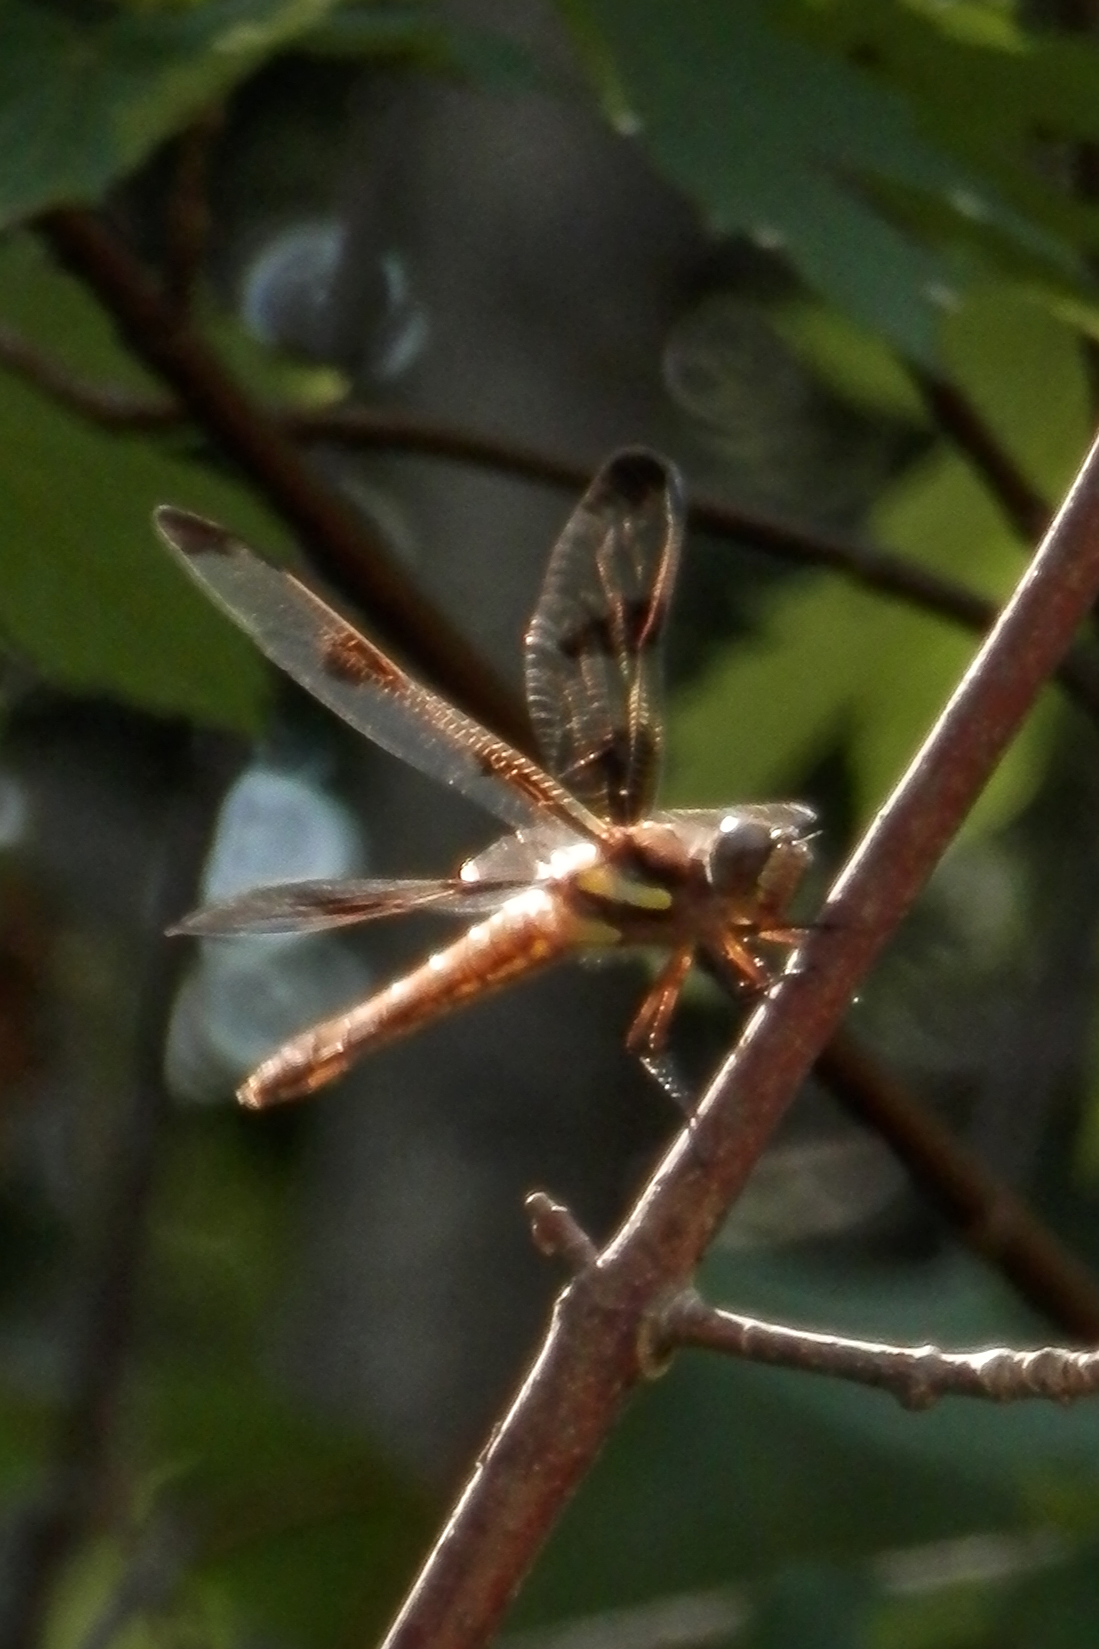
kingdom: Animalia
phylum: Arthropoda
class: Insecta
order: Odonata
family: Libellulidae
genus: Libellula
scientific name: Libellula pulchella
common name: Twelve-spotted skimmer
